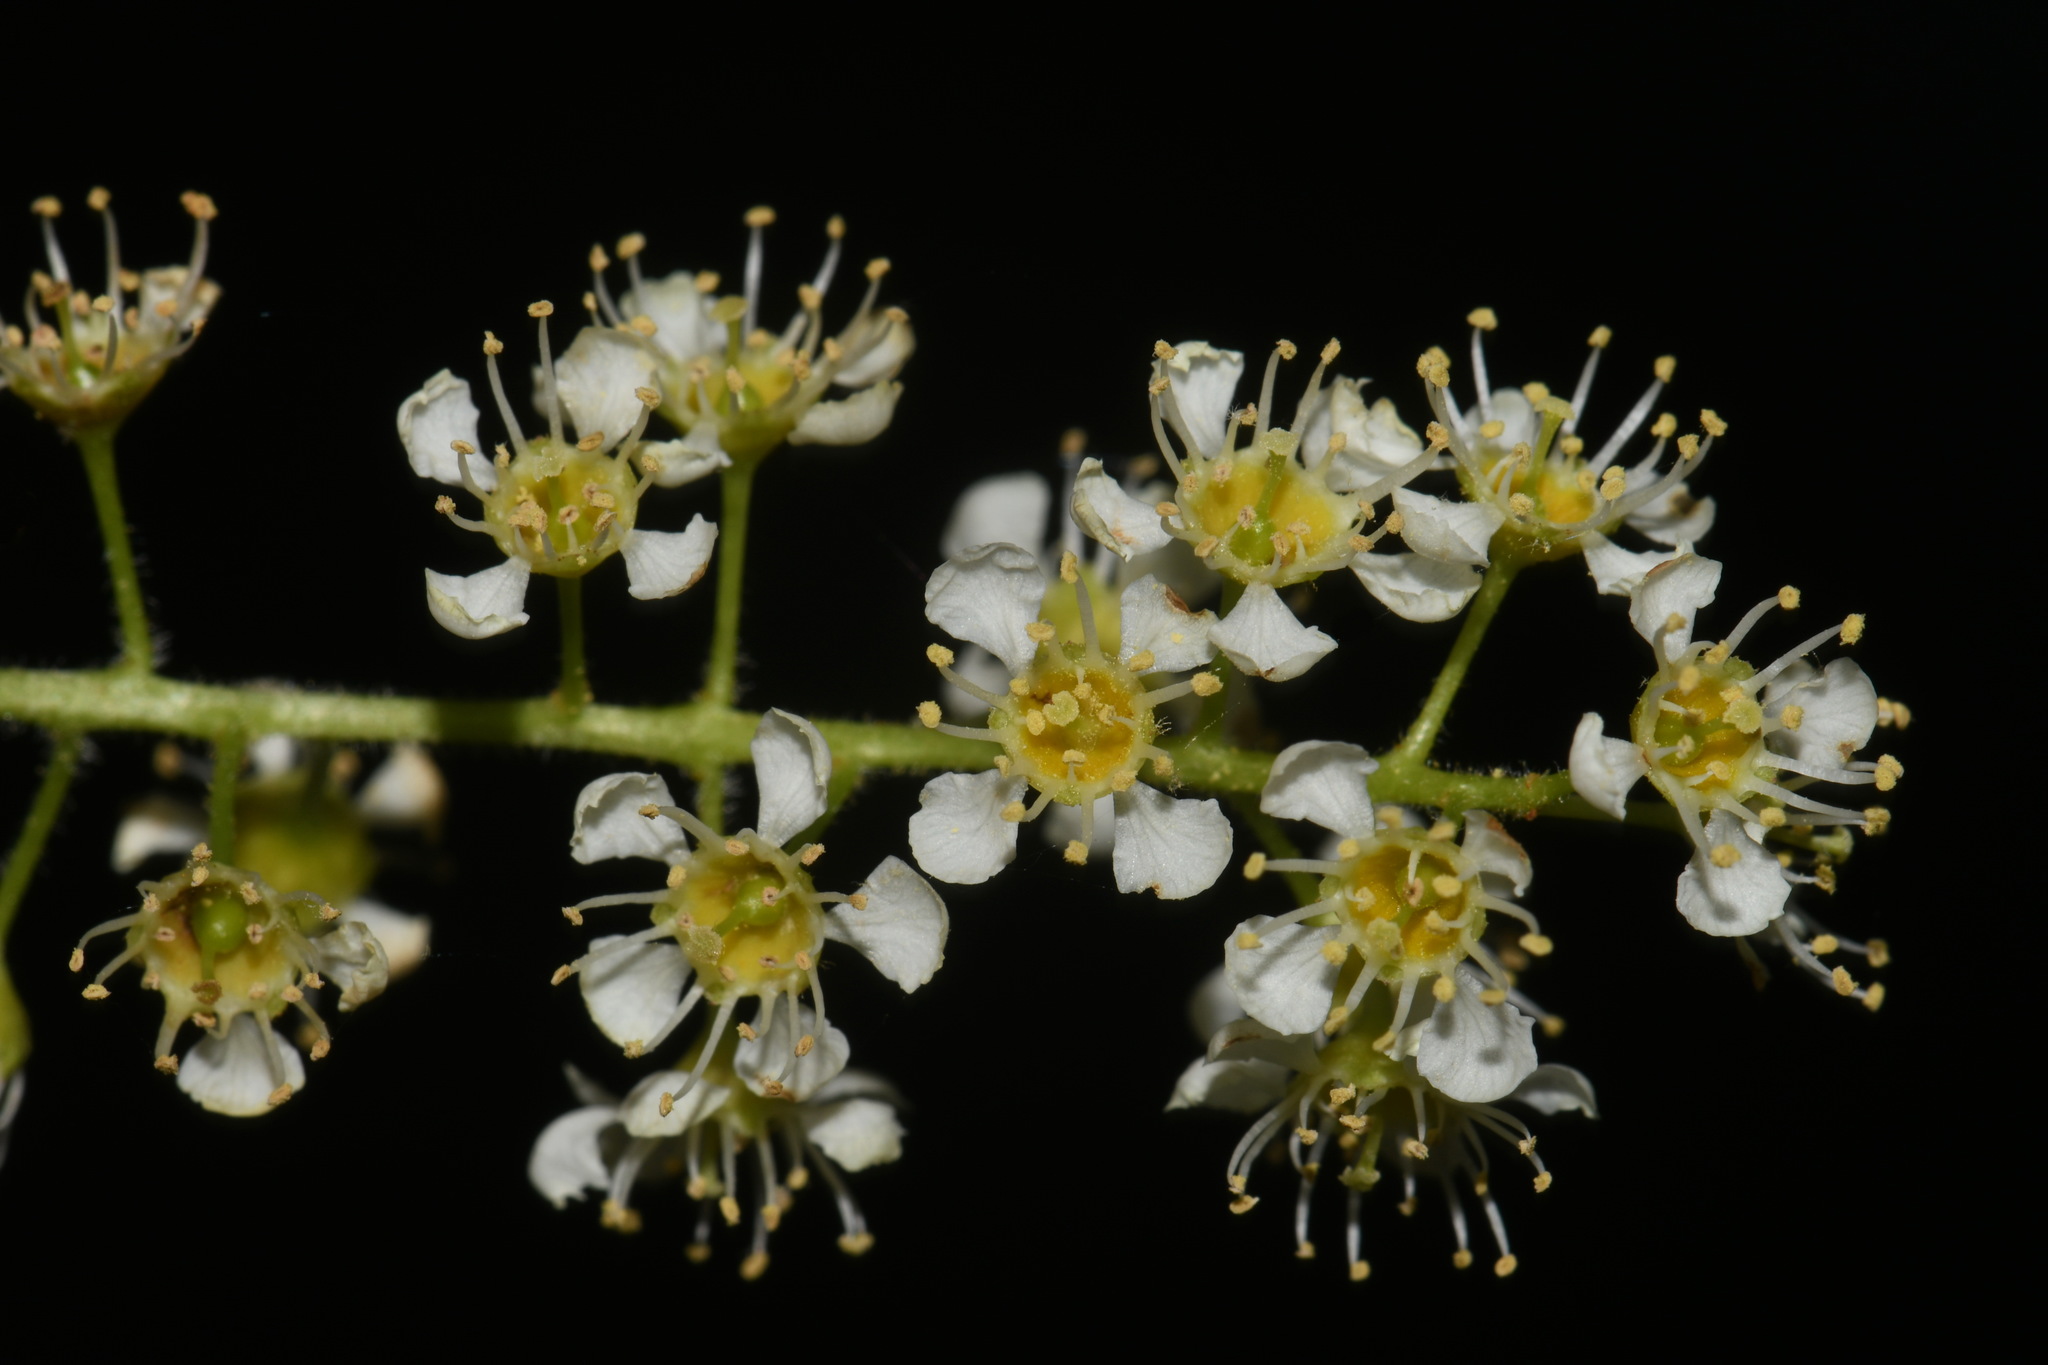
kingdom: Plantae
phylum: Tracheophyta
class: Magnoliopsida
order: Rosales
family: Rosaceae
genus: Prunus
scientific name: Prunus alabamensis
